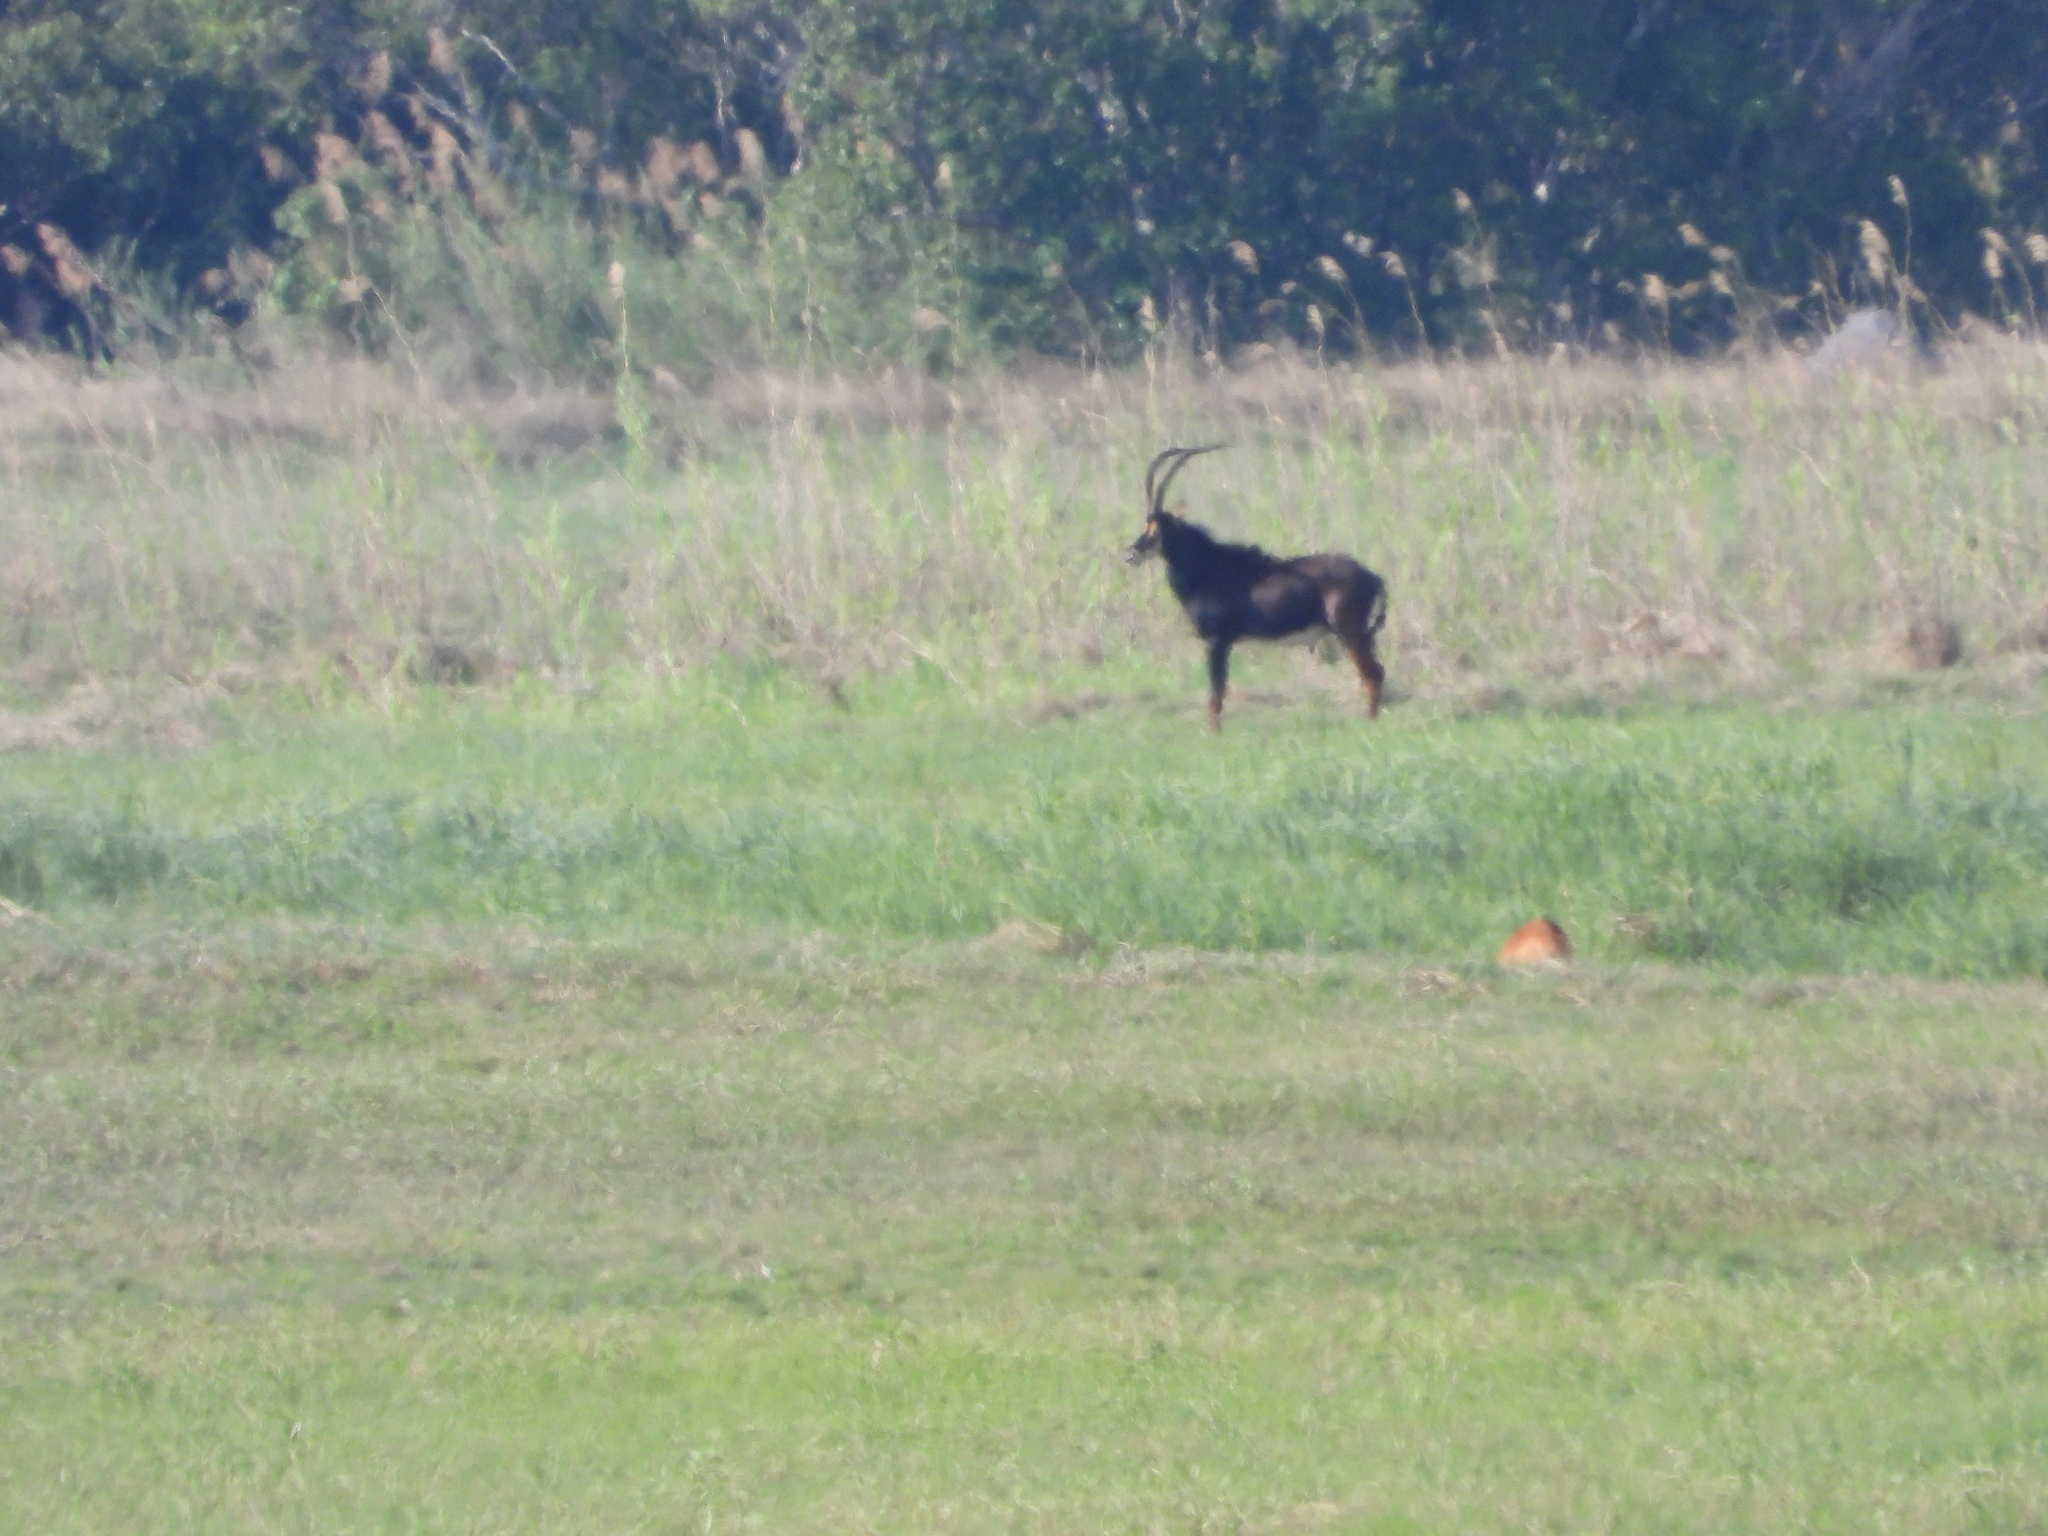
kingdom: Animalia
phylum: Chordata
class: Mammalia
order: Artiodactyla
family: Bovidae
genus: Hippotragus
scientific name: Hippotragus niger
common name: Sable antelope
